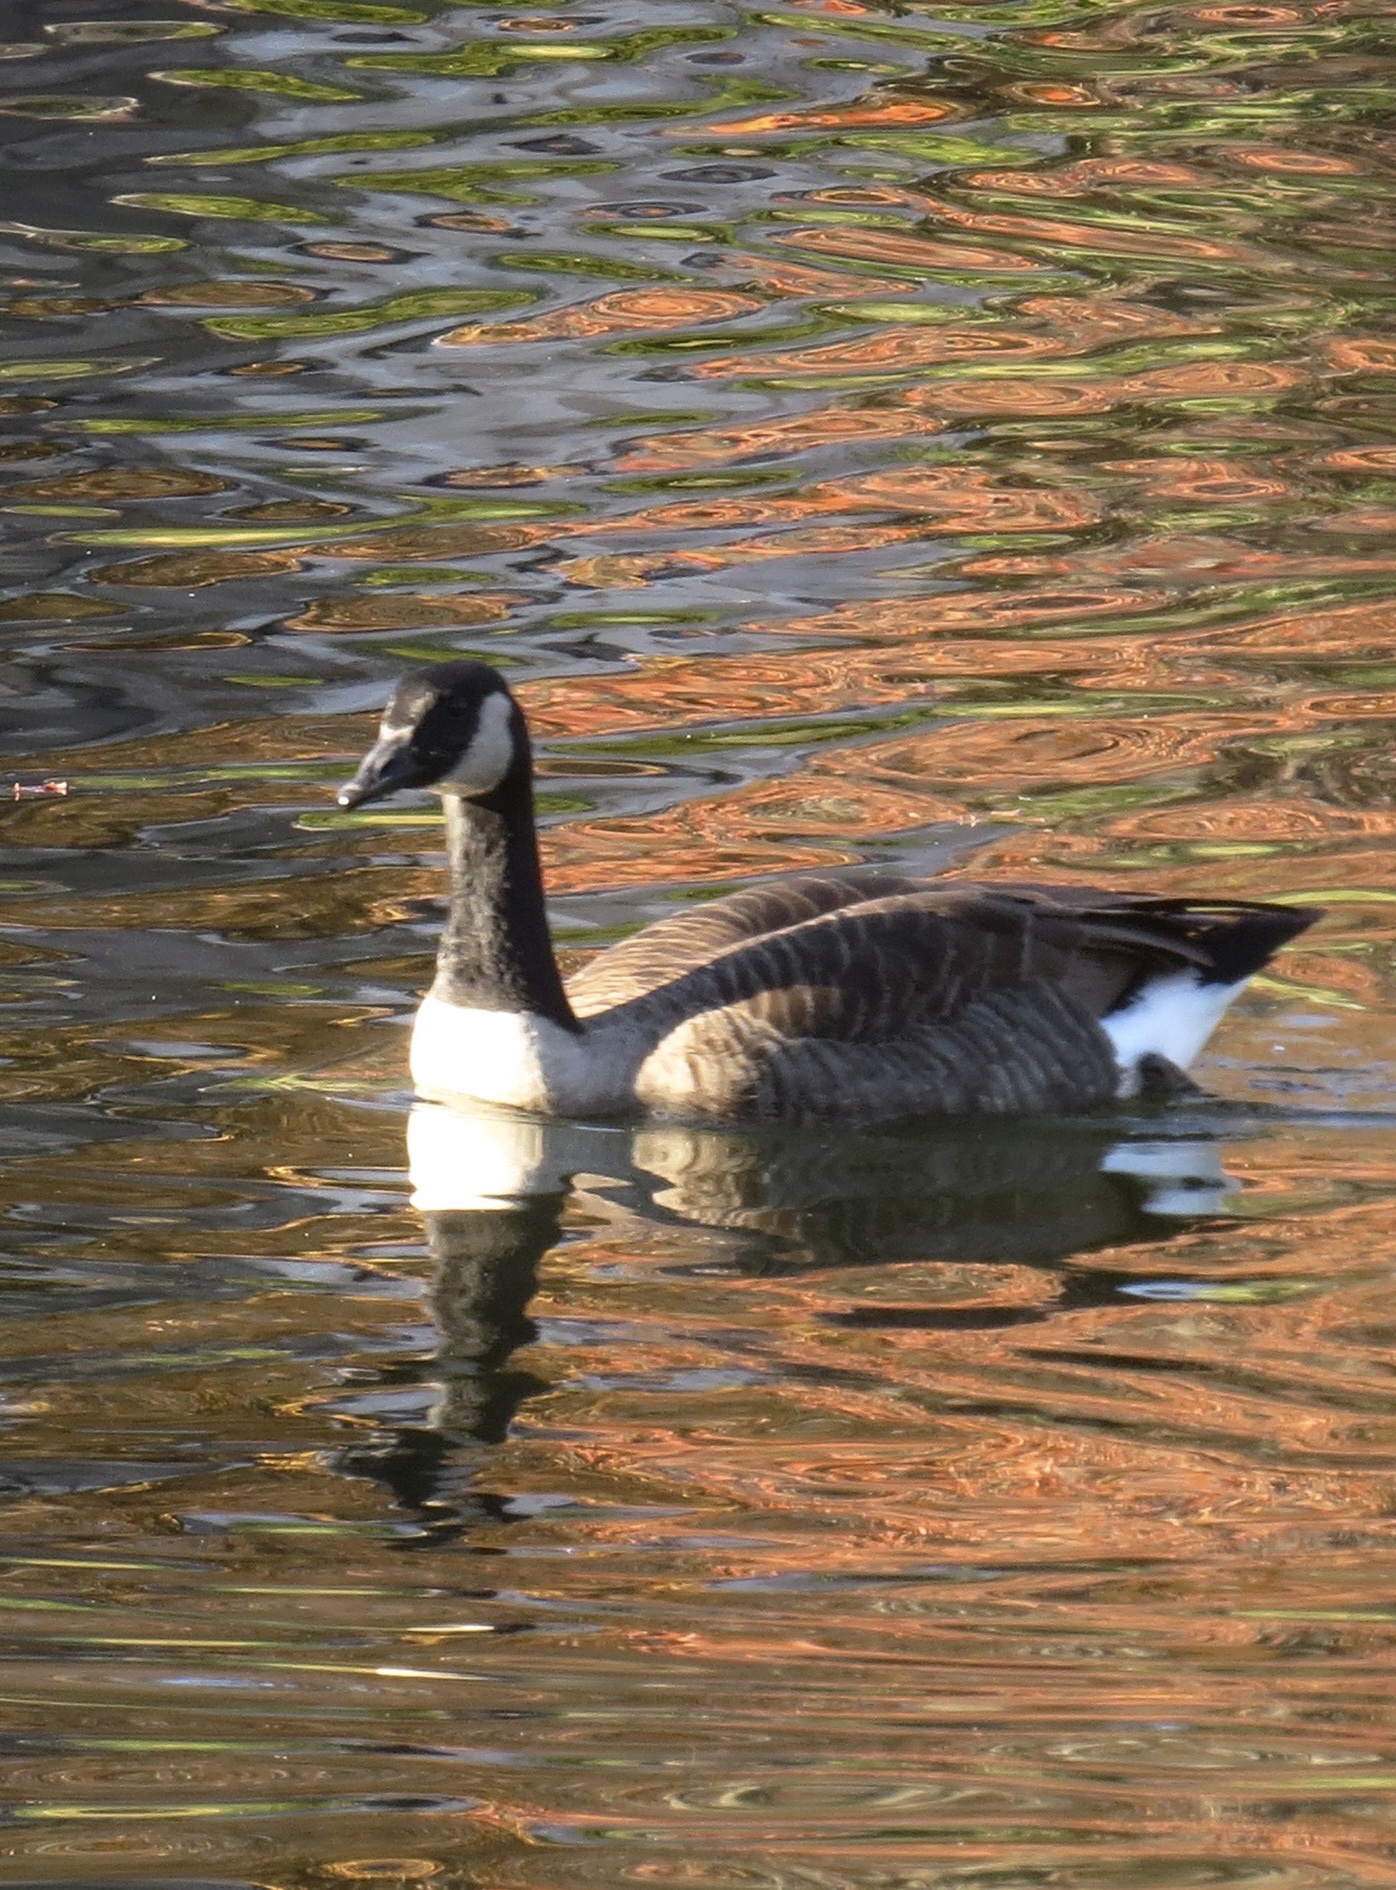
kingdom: Animalia
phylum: Chordata
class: Aves
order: Anseriformes
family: Anatidae
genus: Branta
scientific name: Branta canadensis
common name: Canada goose
